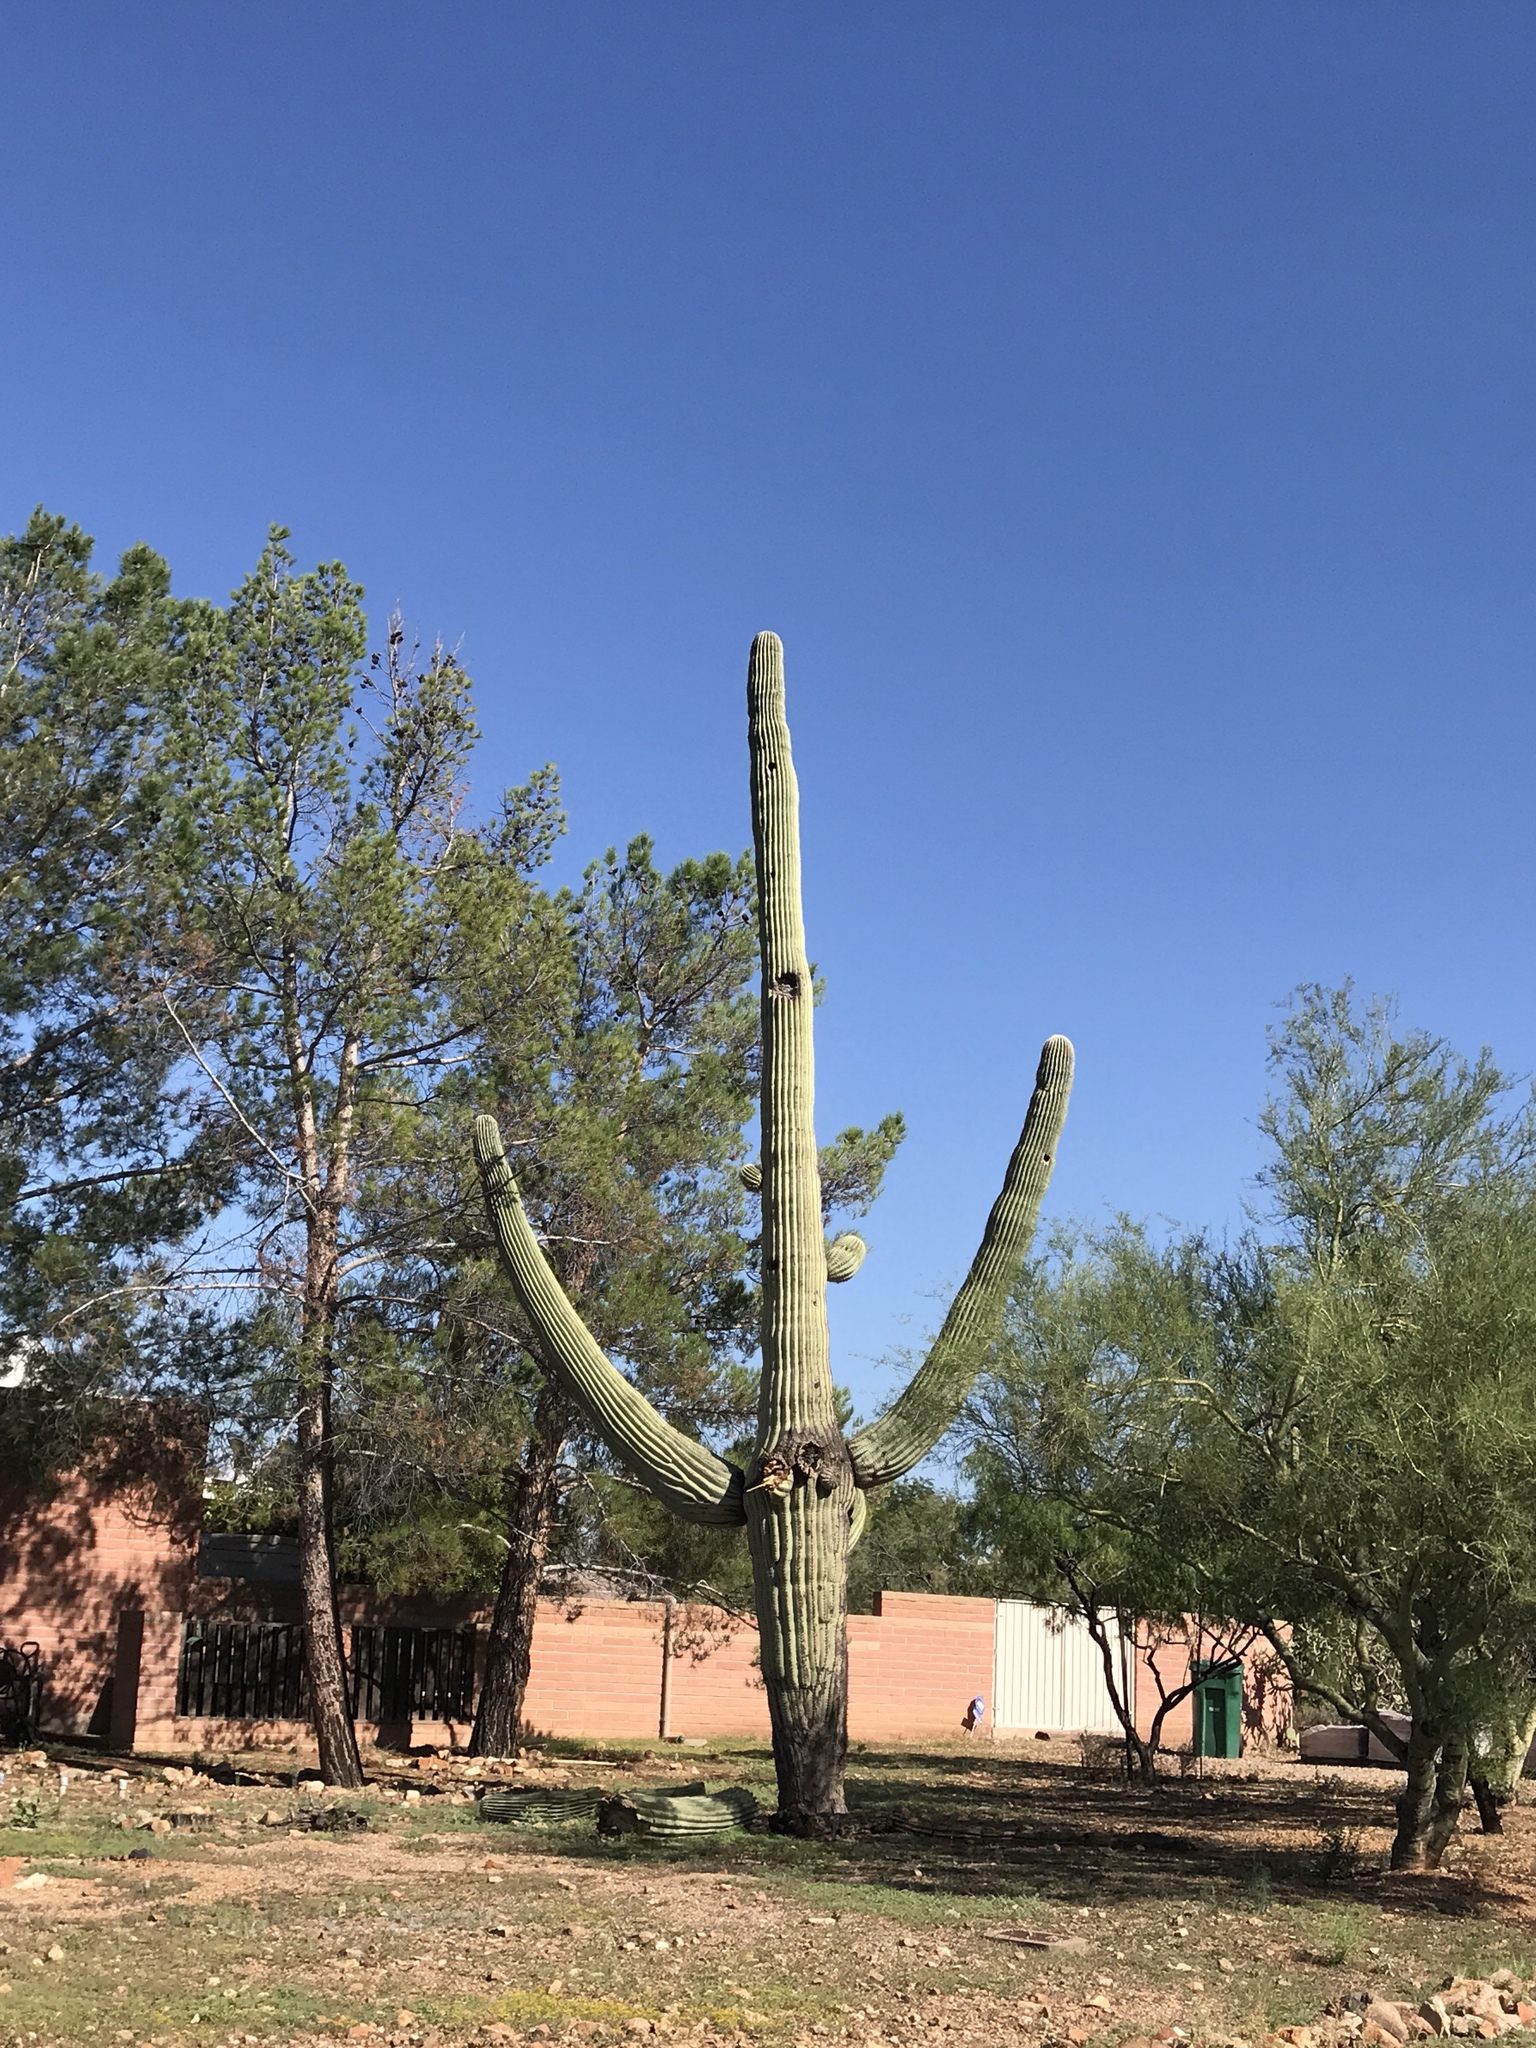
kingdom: Plantae
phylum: Tracheophyta
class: Magnoliopsida
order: Caryophyllales
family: Cactaceae
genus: Carnegiea
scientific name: Carnegiea gigantea
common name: Saguaro
